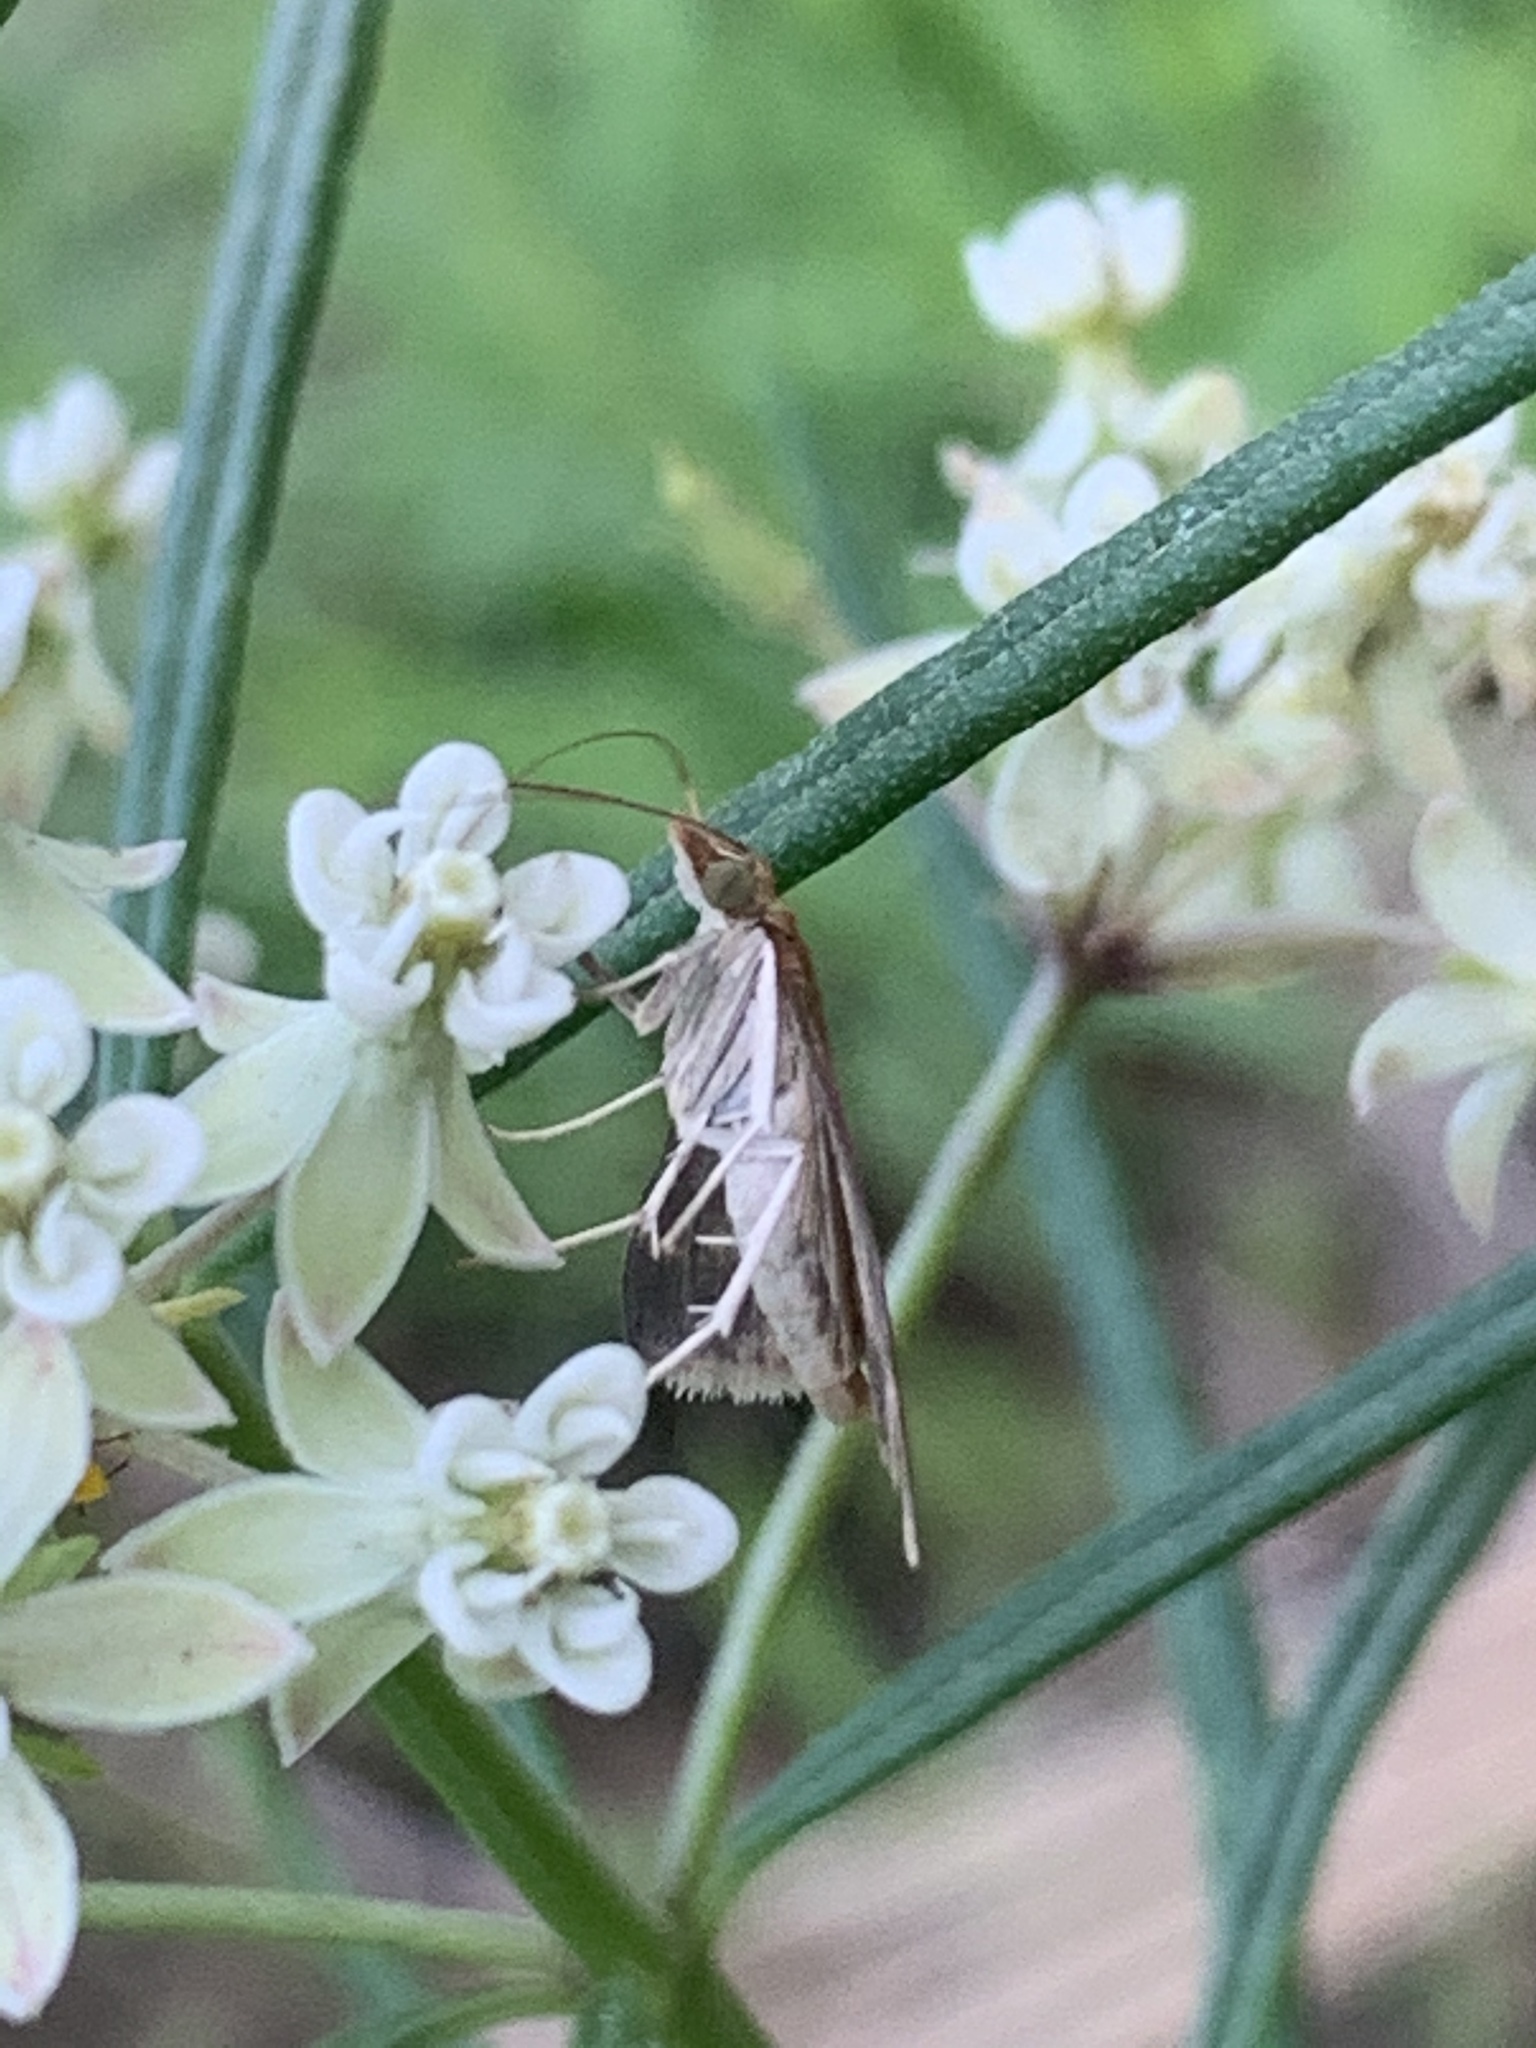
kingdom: Animalia
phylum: Arthropoda
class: Insecta
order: Lepidoptera
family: Crambidae
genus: Pyrausta
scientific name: Pyrausta signatalis
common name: Raspberry pyrausta moth
